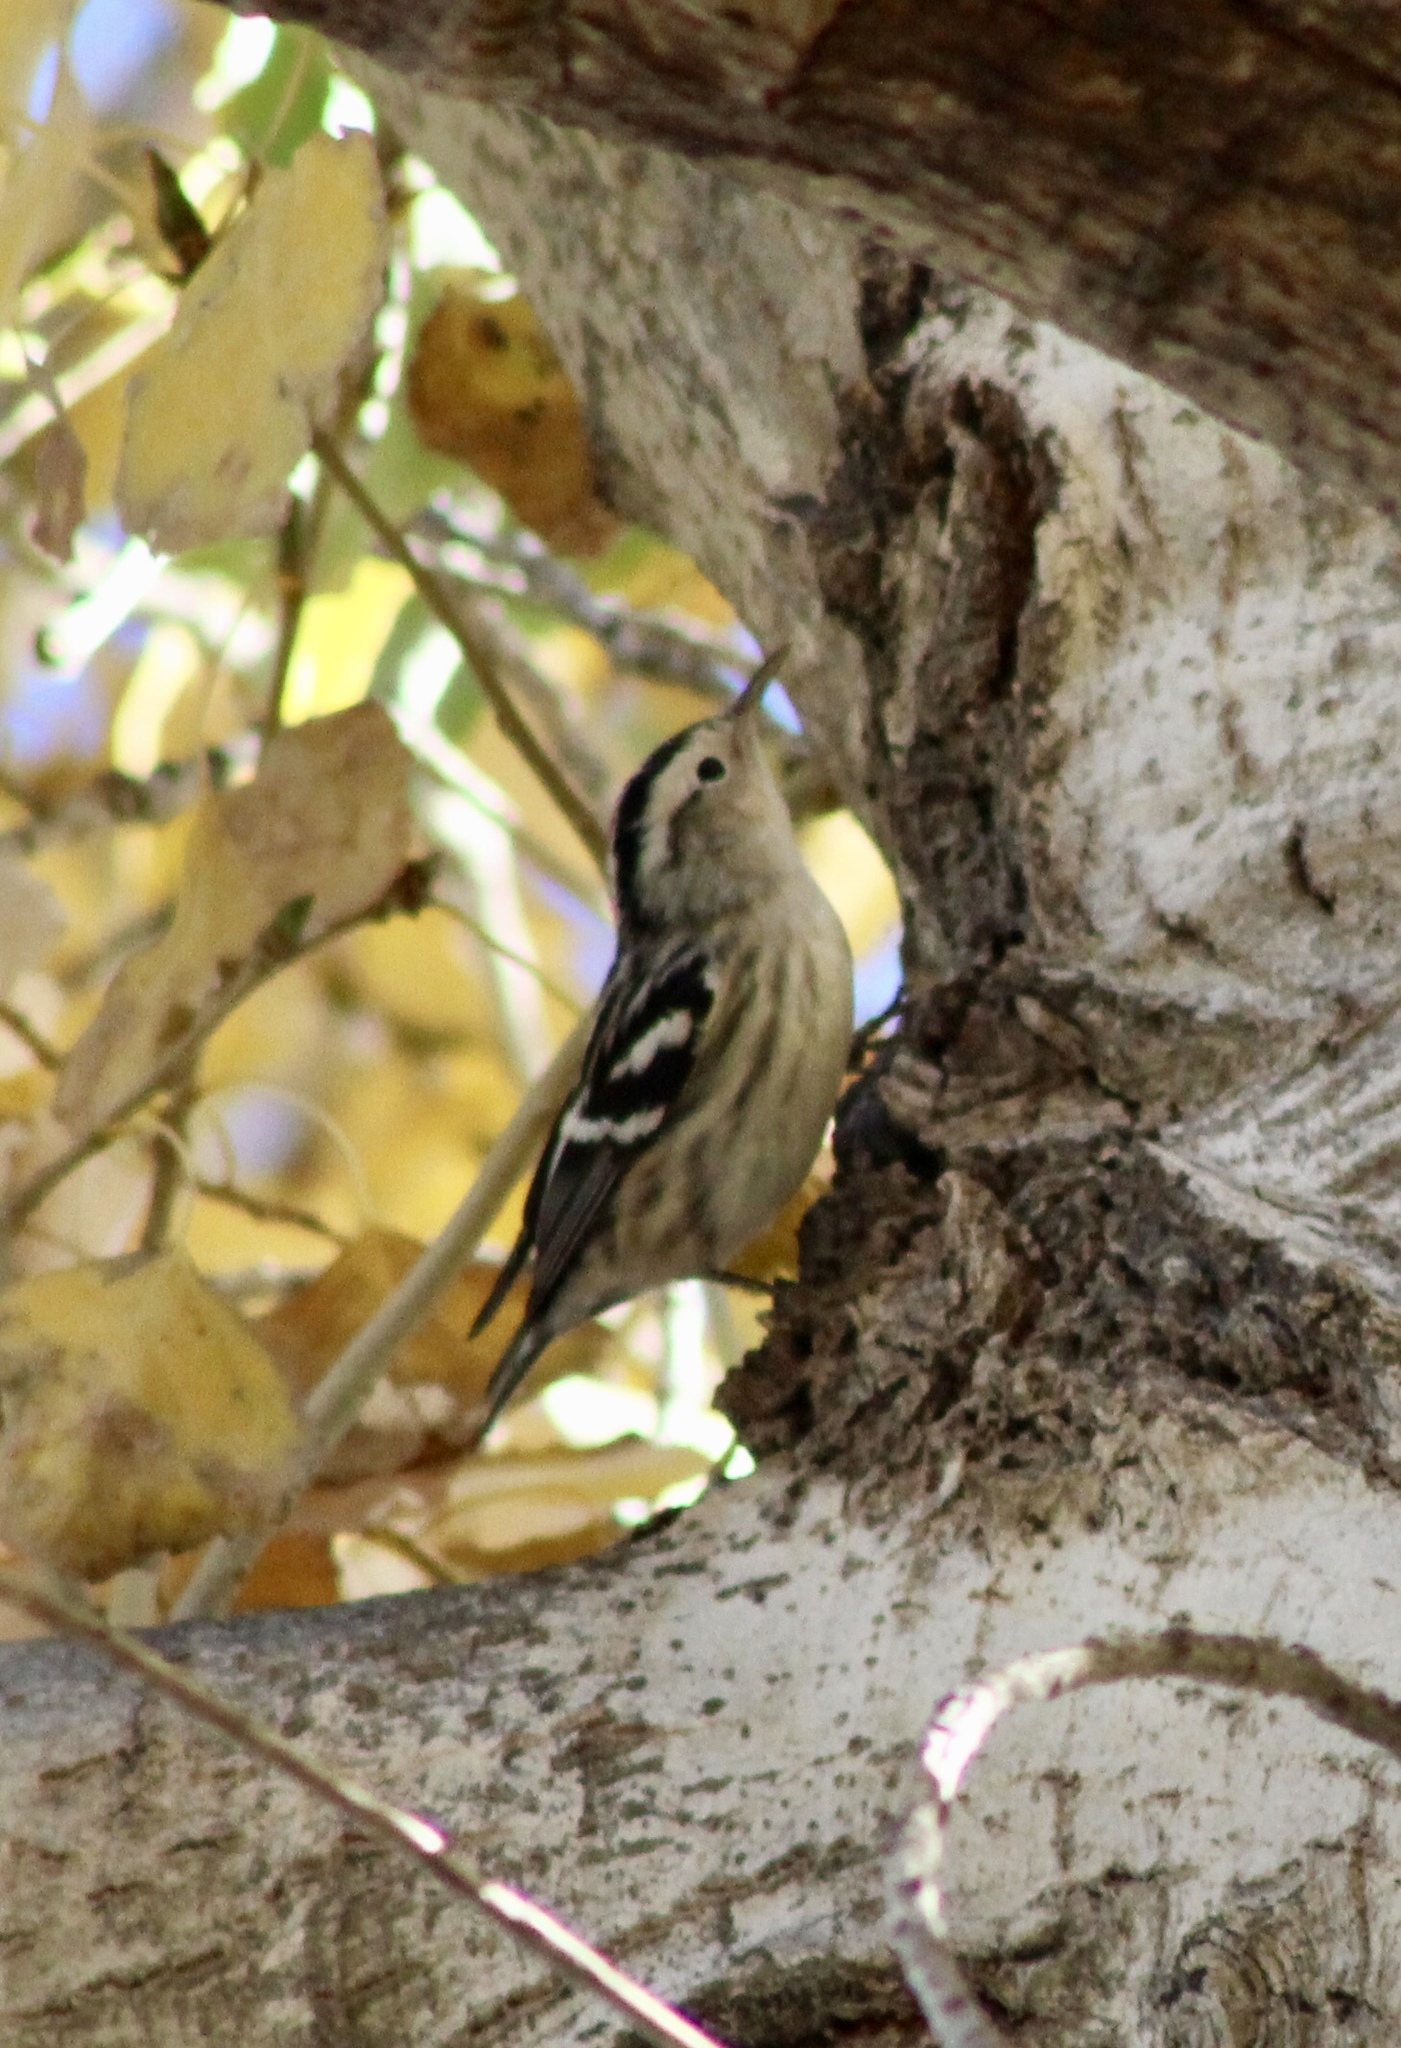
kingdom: Animalia
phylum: Chordata
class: Aves
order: Passeriformes
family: Parulidae
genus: Mniotilta
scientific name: Mniotilta varia
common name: Black-and-white warbler
